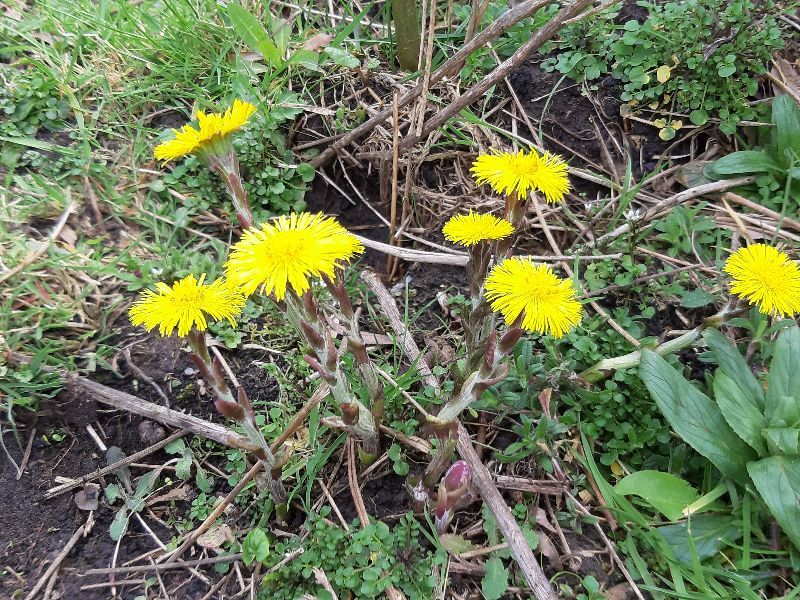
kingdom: Plantae
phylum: Tracheophyta
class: Magnoliopsida
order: Asterales
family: Asteraceae
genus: Tussilago
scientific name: Tussilago farfara
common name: Coltsfoot
